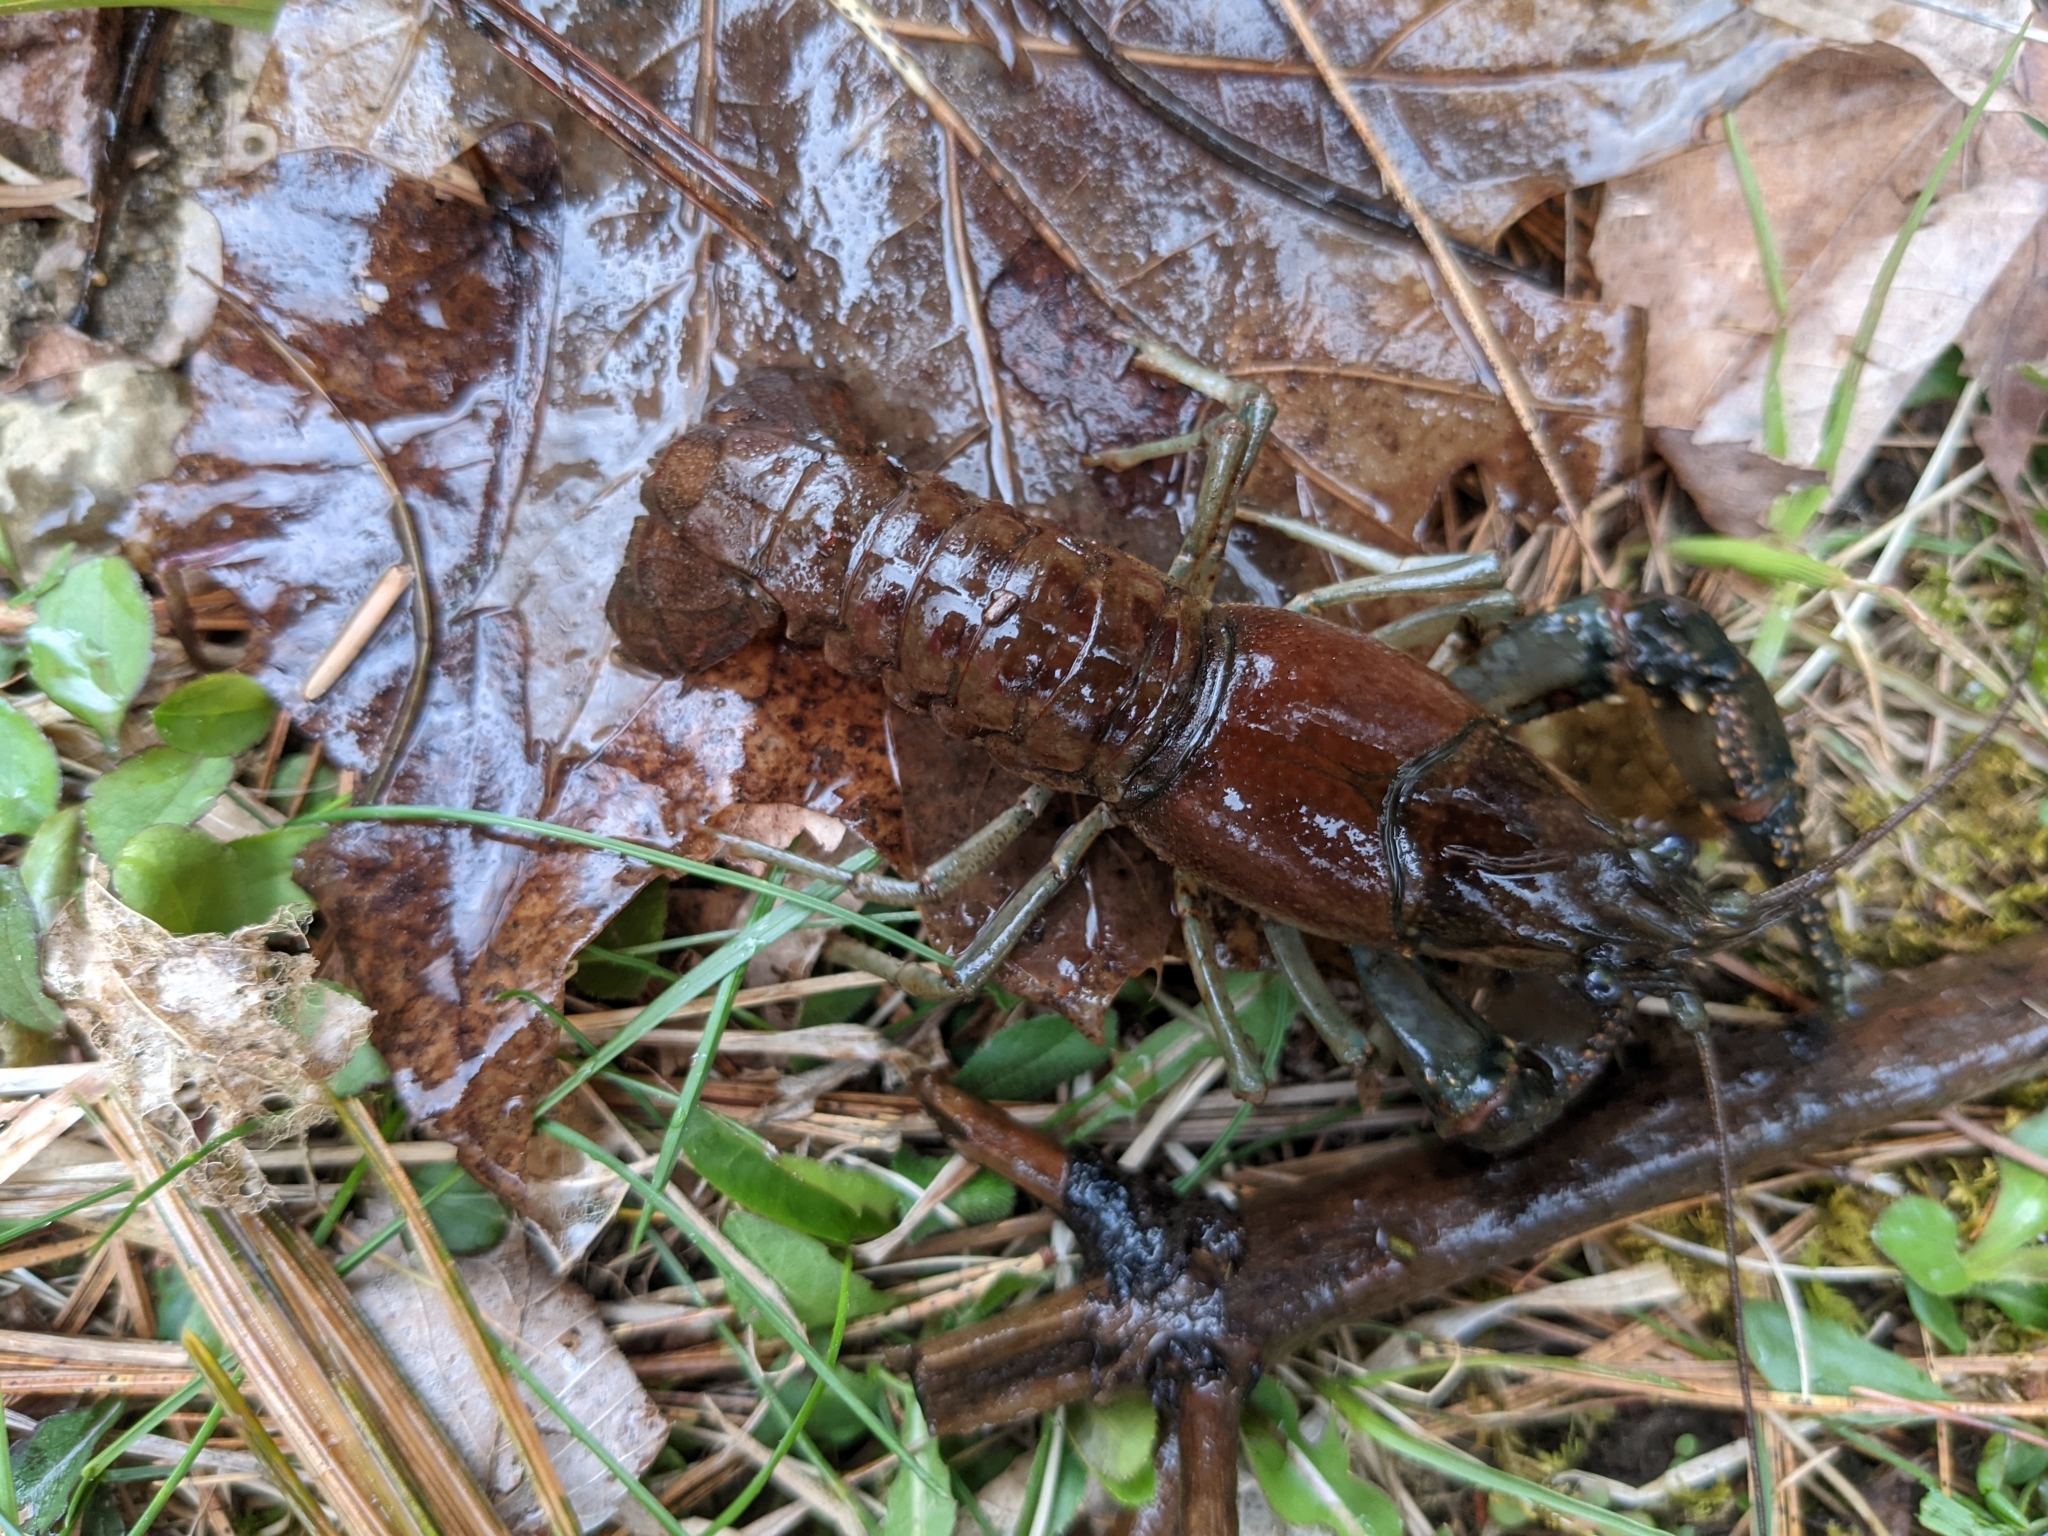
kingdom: Animalia
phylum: Arthropoda
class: Malacostraca
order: Decapoda
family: Cambaridae
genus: Faxonius
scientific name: Faxonius virilis
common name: Virile crayfish
